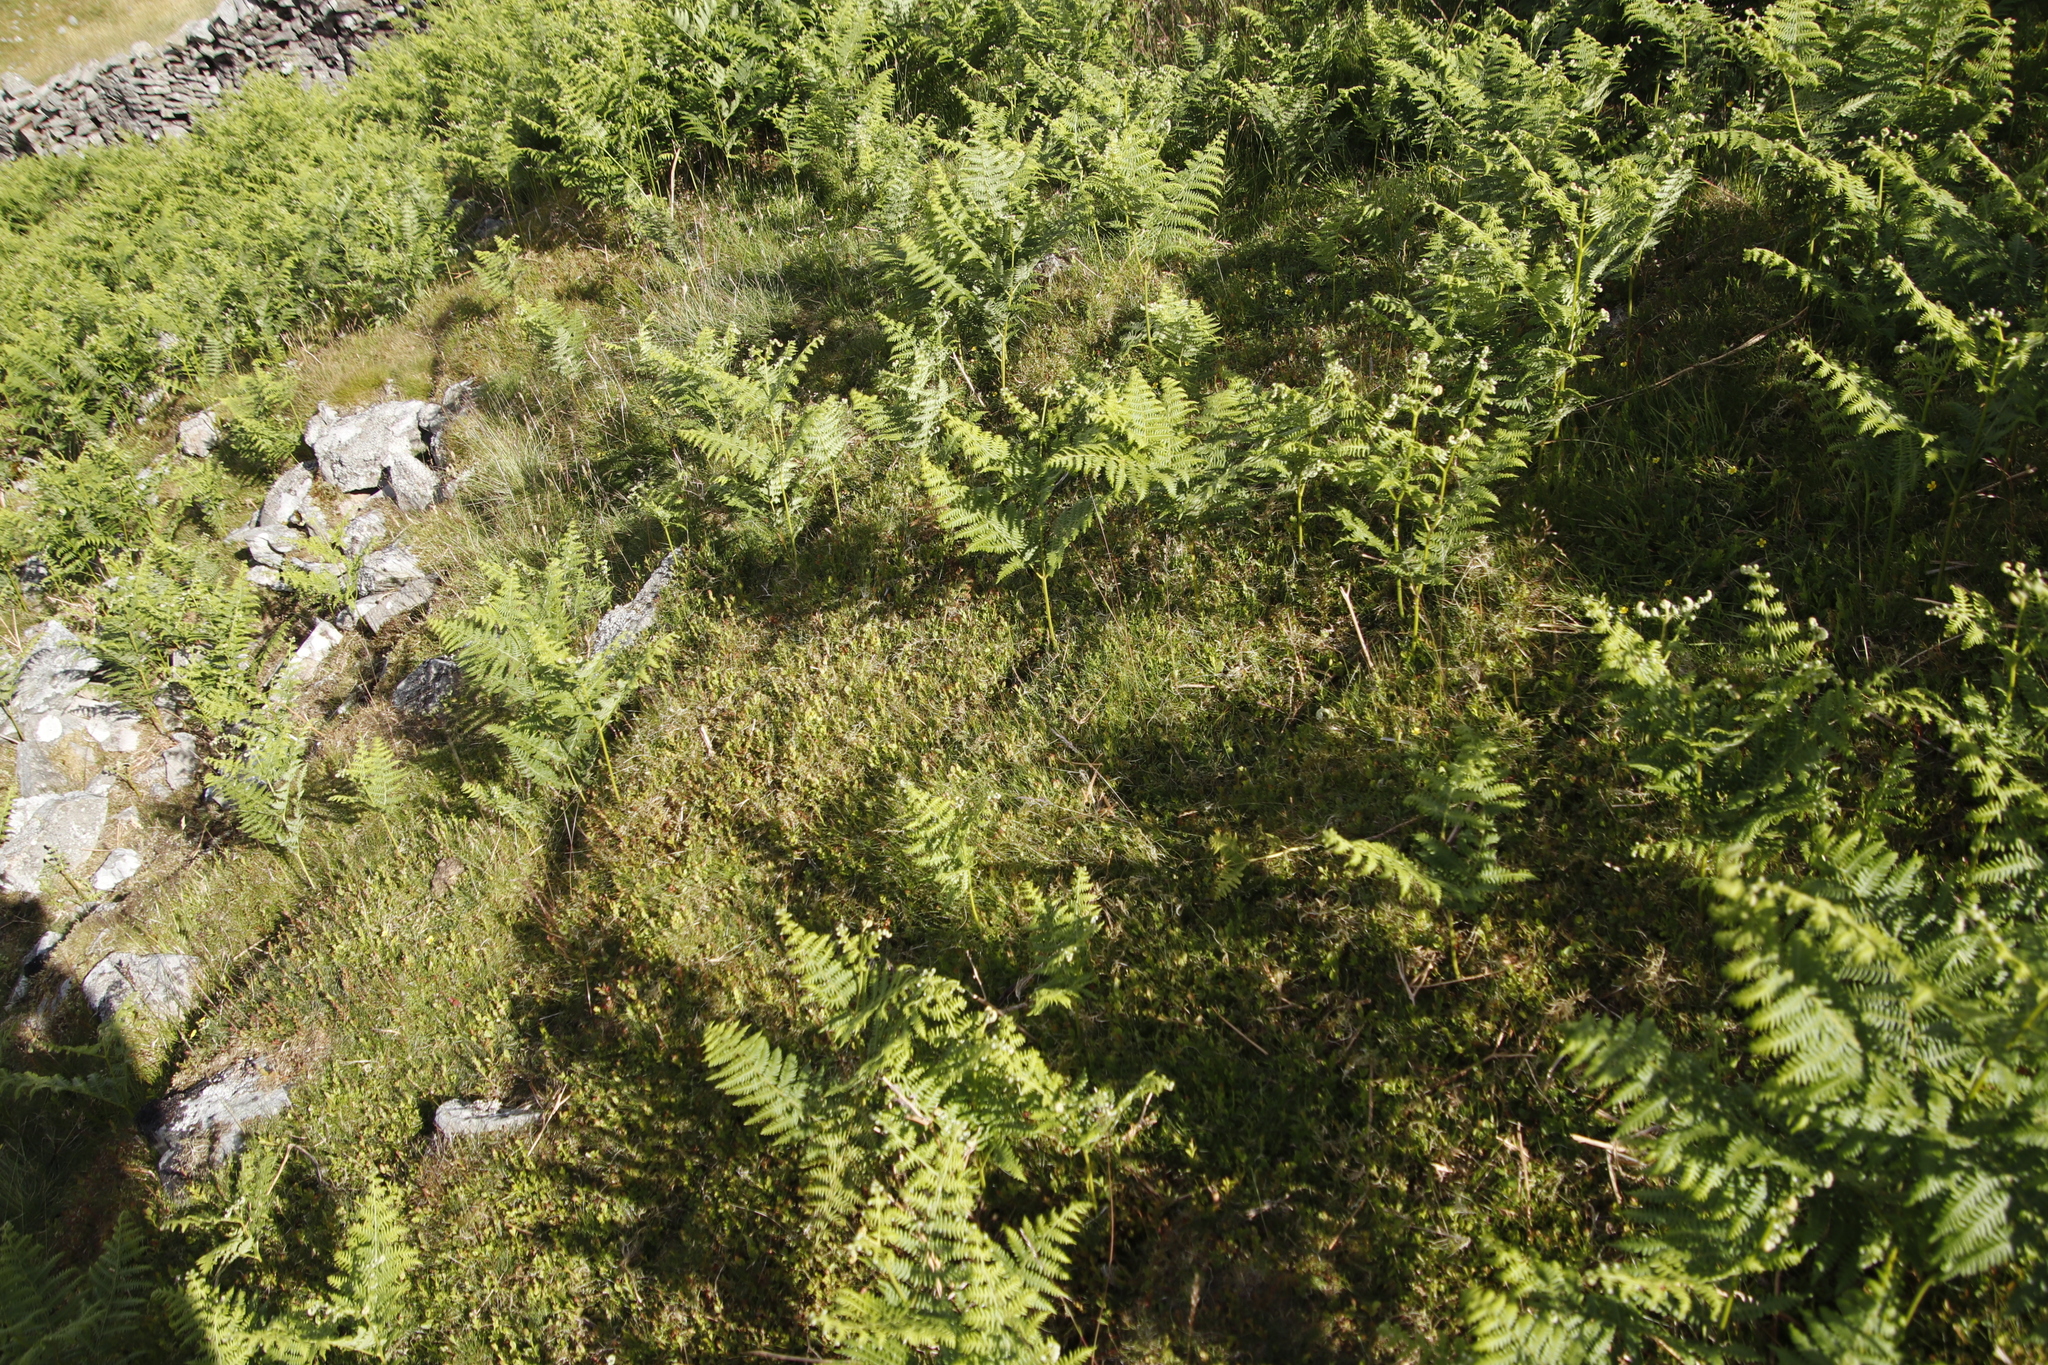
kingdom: Plantae
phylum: Tracheophyta
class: Polypodiopsida
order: Polypodiales
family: Dennstaedtiaceae
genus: Pteridium
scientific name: Pteridium aquilinum
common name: Bracken
